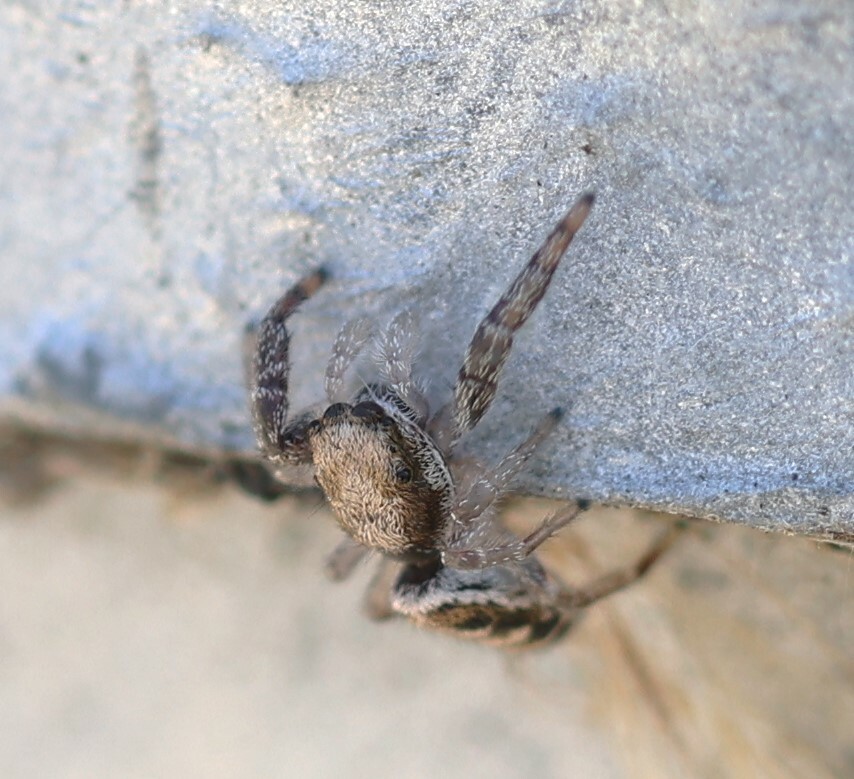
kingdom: Animalia
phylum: Arthropoda
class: Arachnida
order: Araneae
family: Salticidae
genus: Metaphidippus
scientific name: Metaphidippus siticulosus
